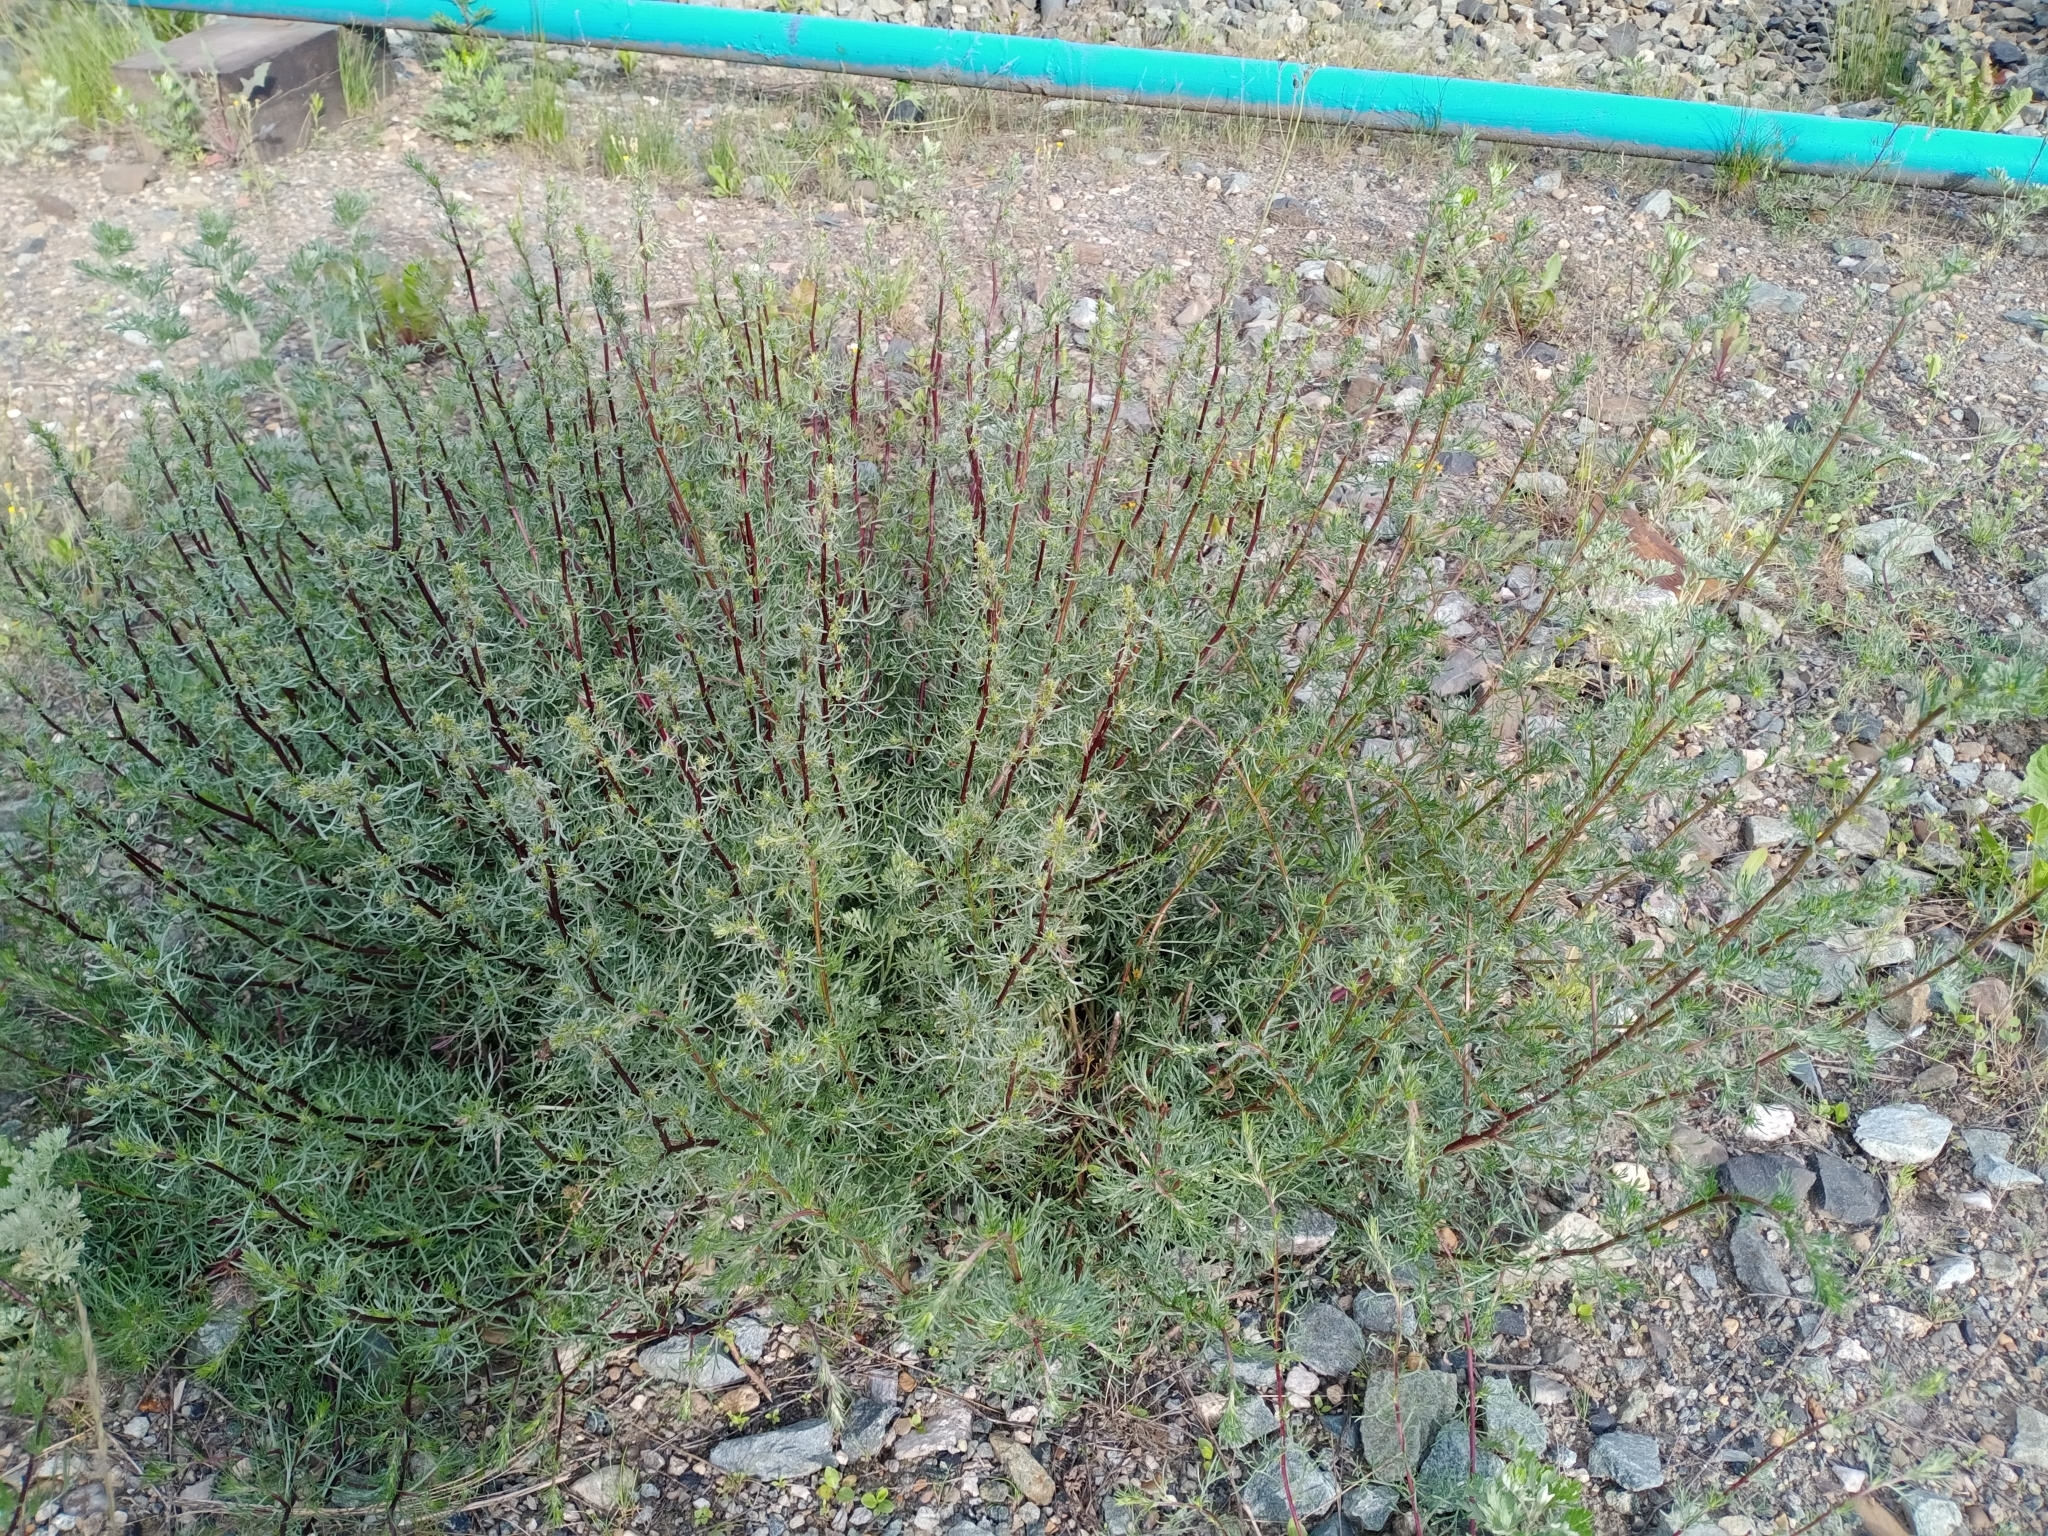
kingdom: Plantae
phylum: Tracheophyta
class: Magnoliopsida
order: Asterales
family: Asteraceae
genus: Artemisia
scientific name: Artemisia campestris
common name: Field wormwood
